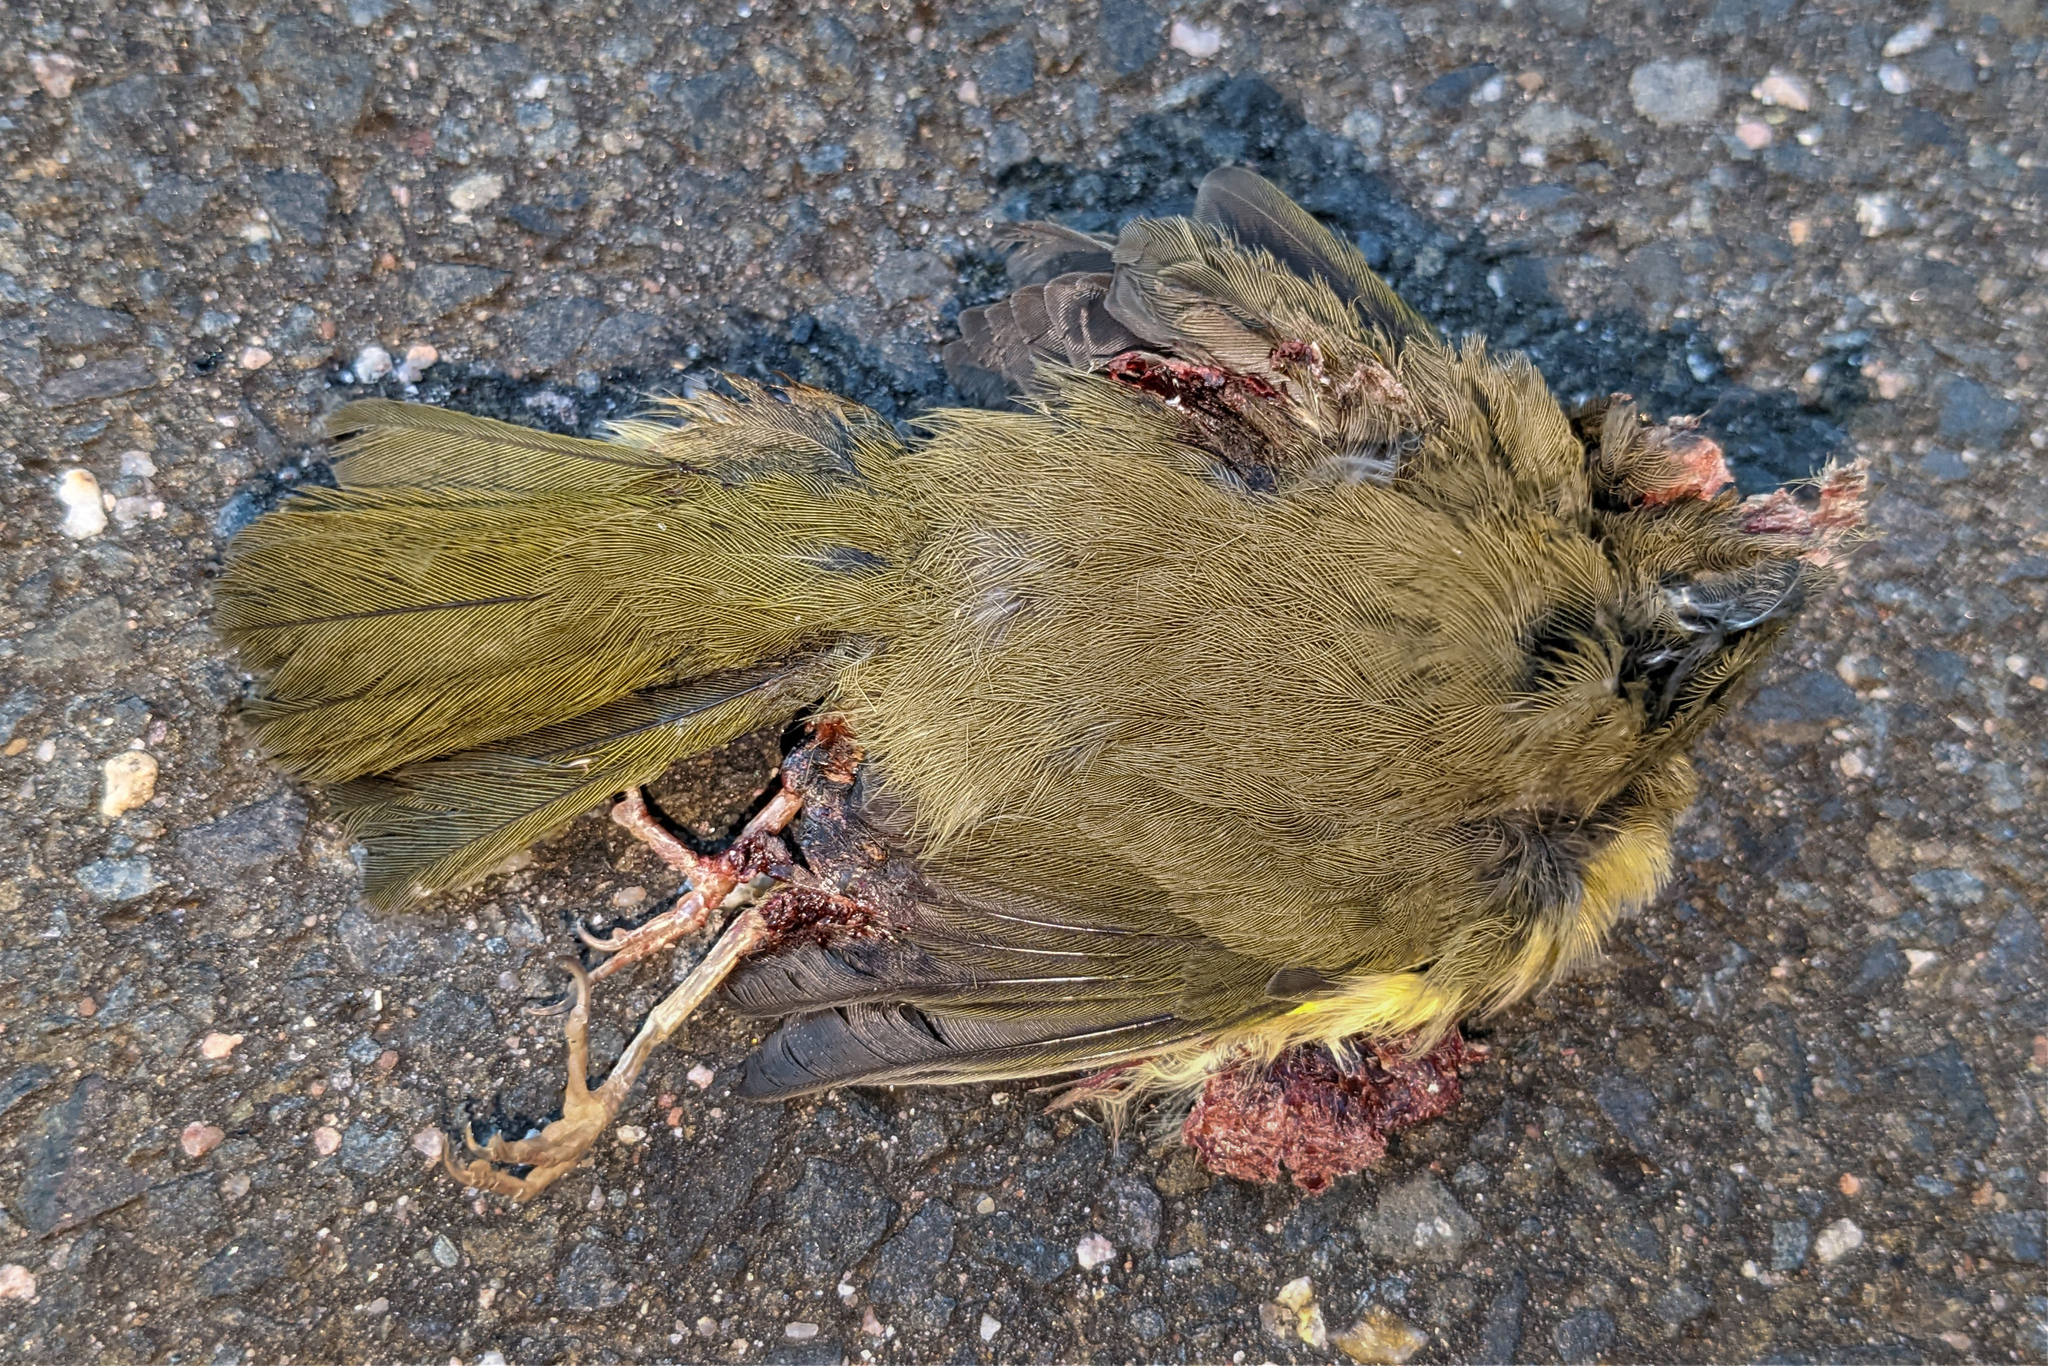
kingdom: Animalia
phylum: Chordata
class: Aves
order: Passeriformes
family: Parulidae
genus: Geothlypis
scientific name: Geothlypis trichas
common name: Common yellowthroat
